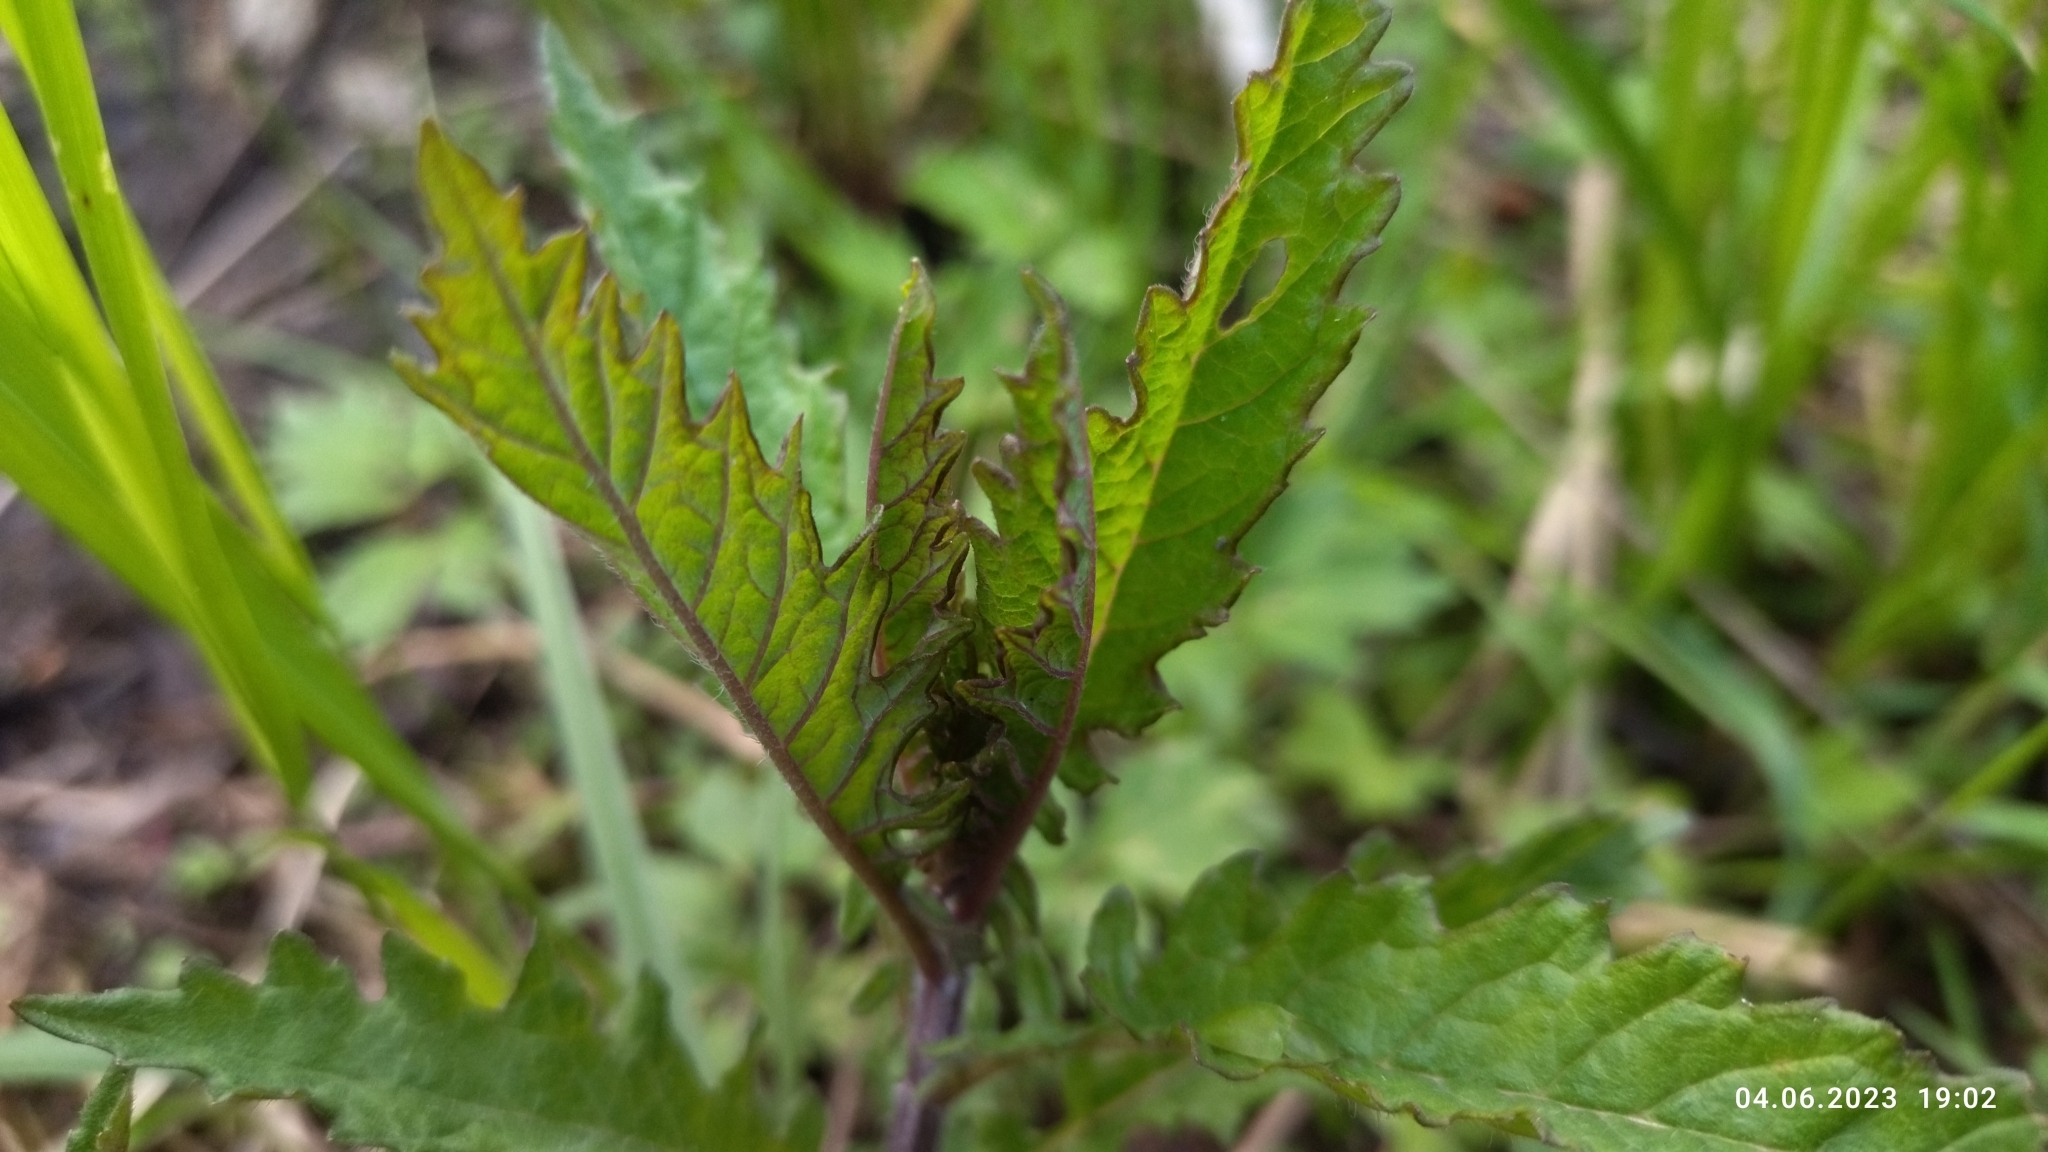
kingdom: Plantae
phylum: Tracheophyta
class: Magnoliopsida
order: Lamiales
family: Lamiaceae
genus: Lycopus
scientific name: Lycopus europaeus
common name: European bugleweed
